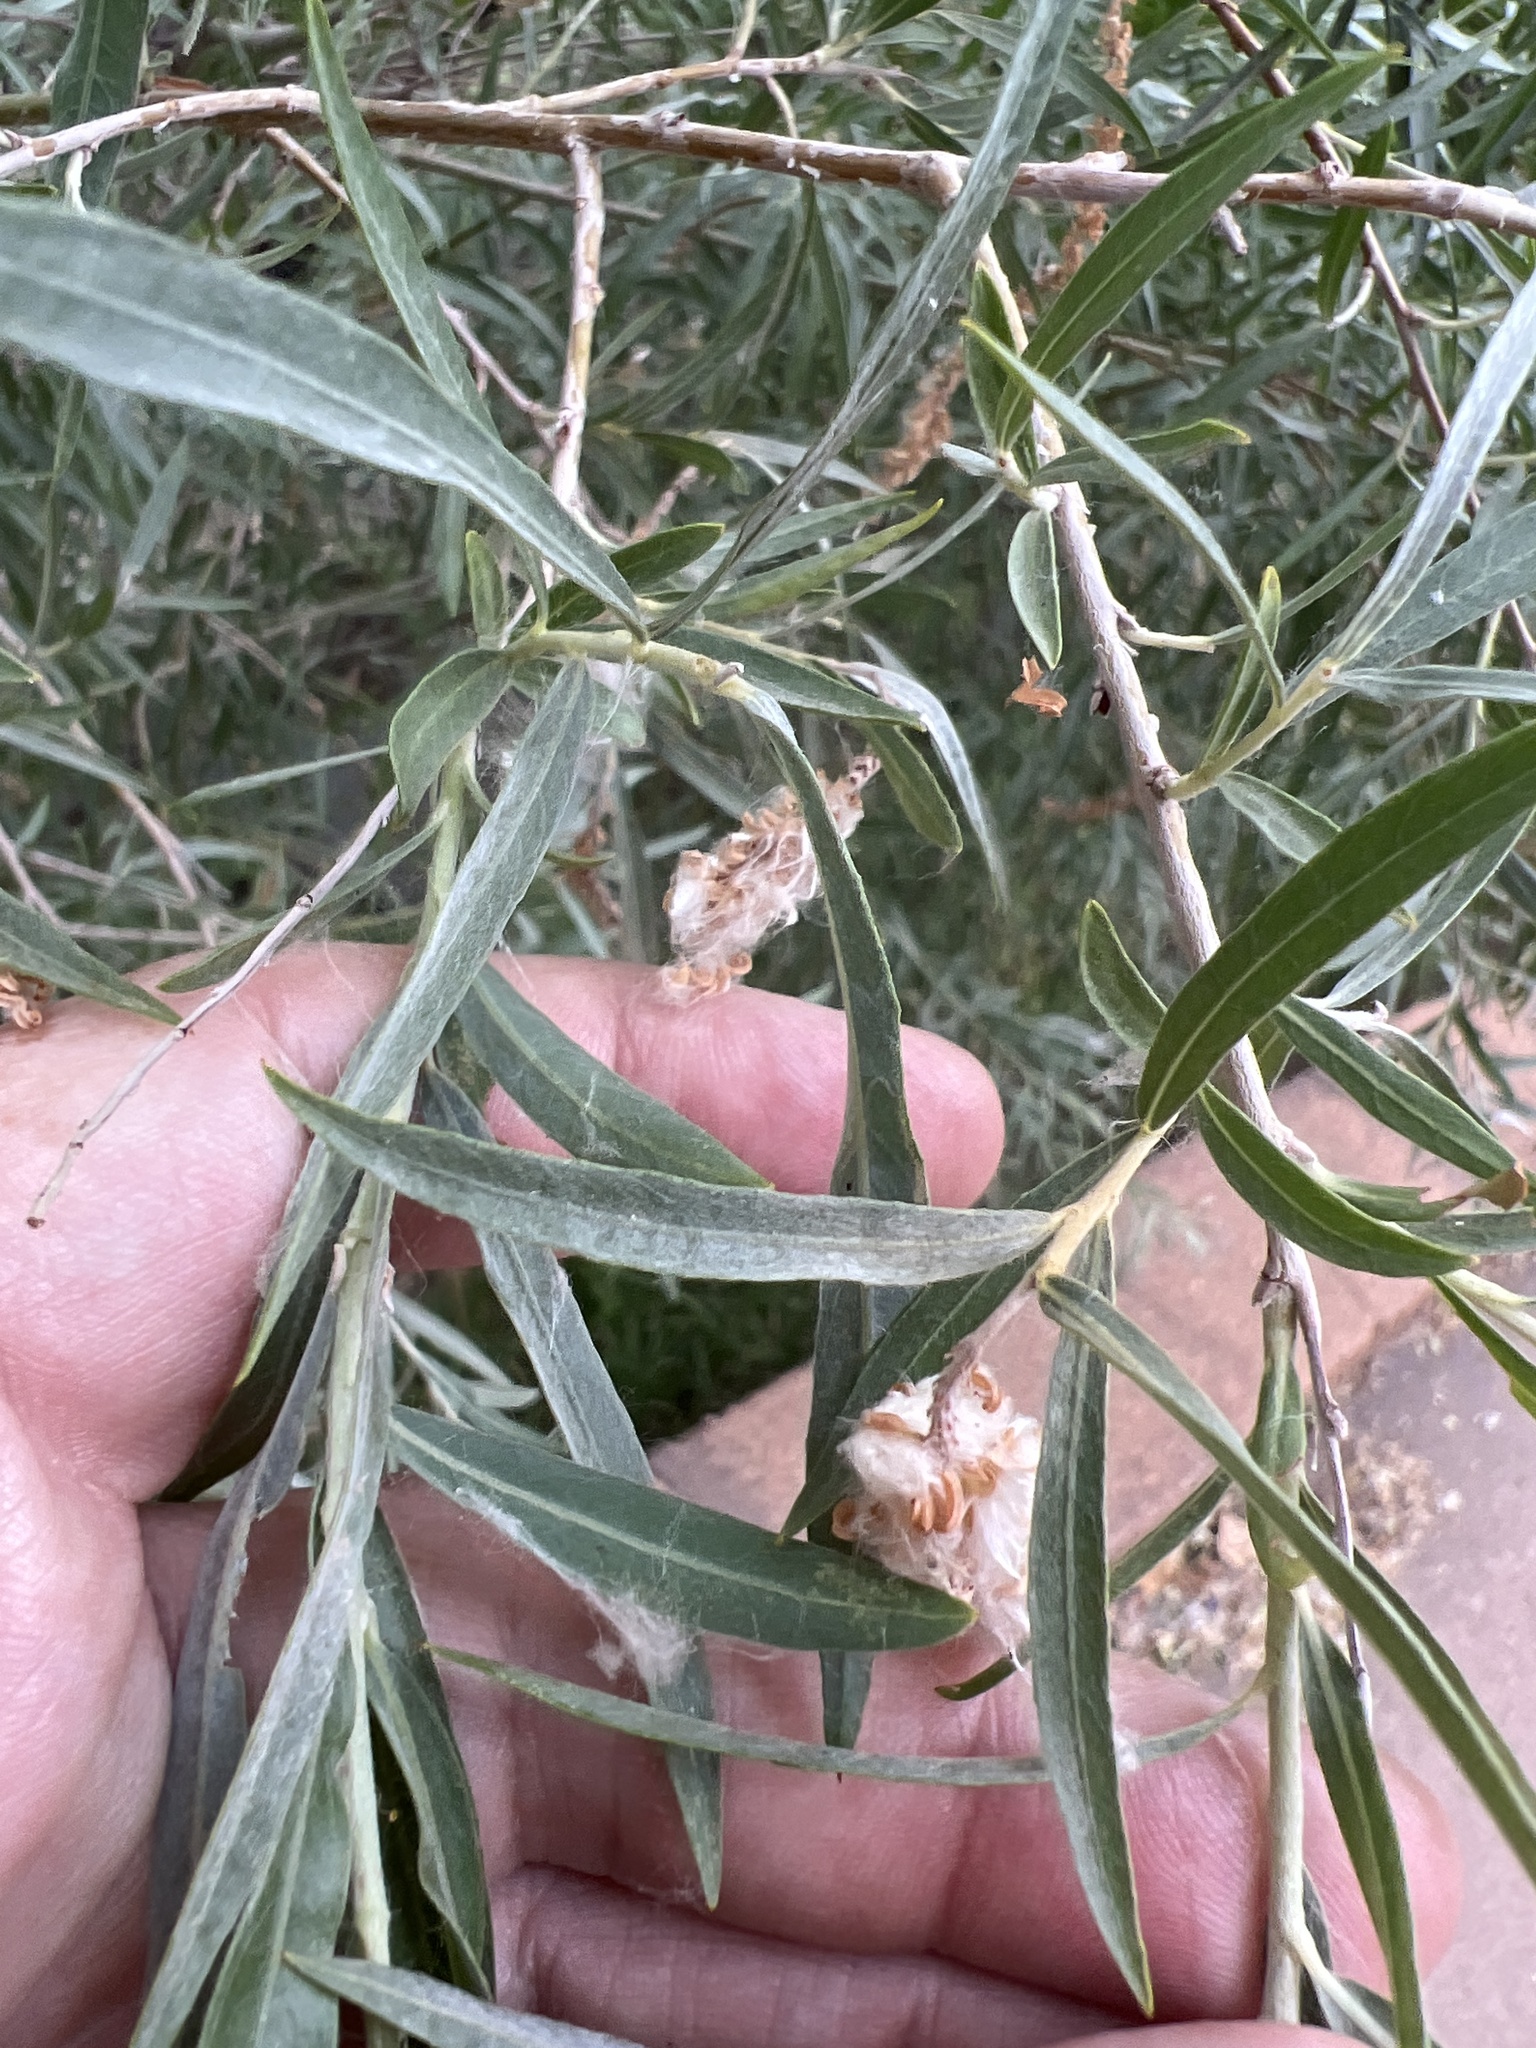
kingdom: Plantae
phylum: Tracheophyta
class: Magnoliopsida
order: Malpighiales
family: Salicaceae
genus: Salix
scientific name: Salix exigua
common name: Coyote willow
